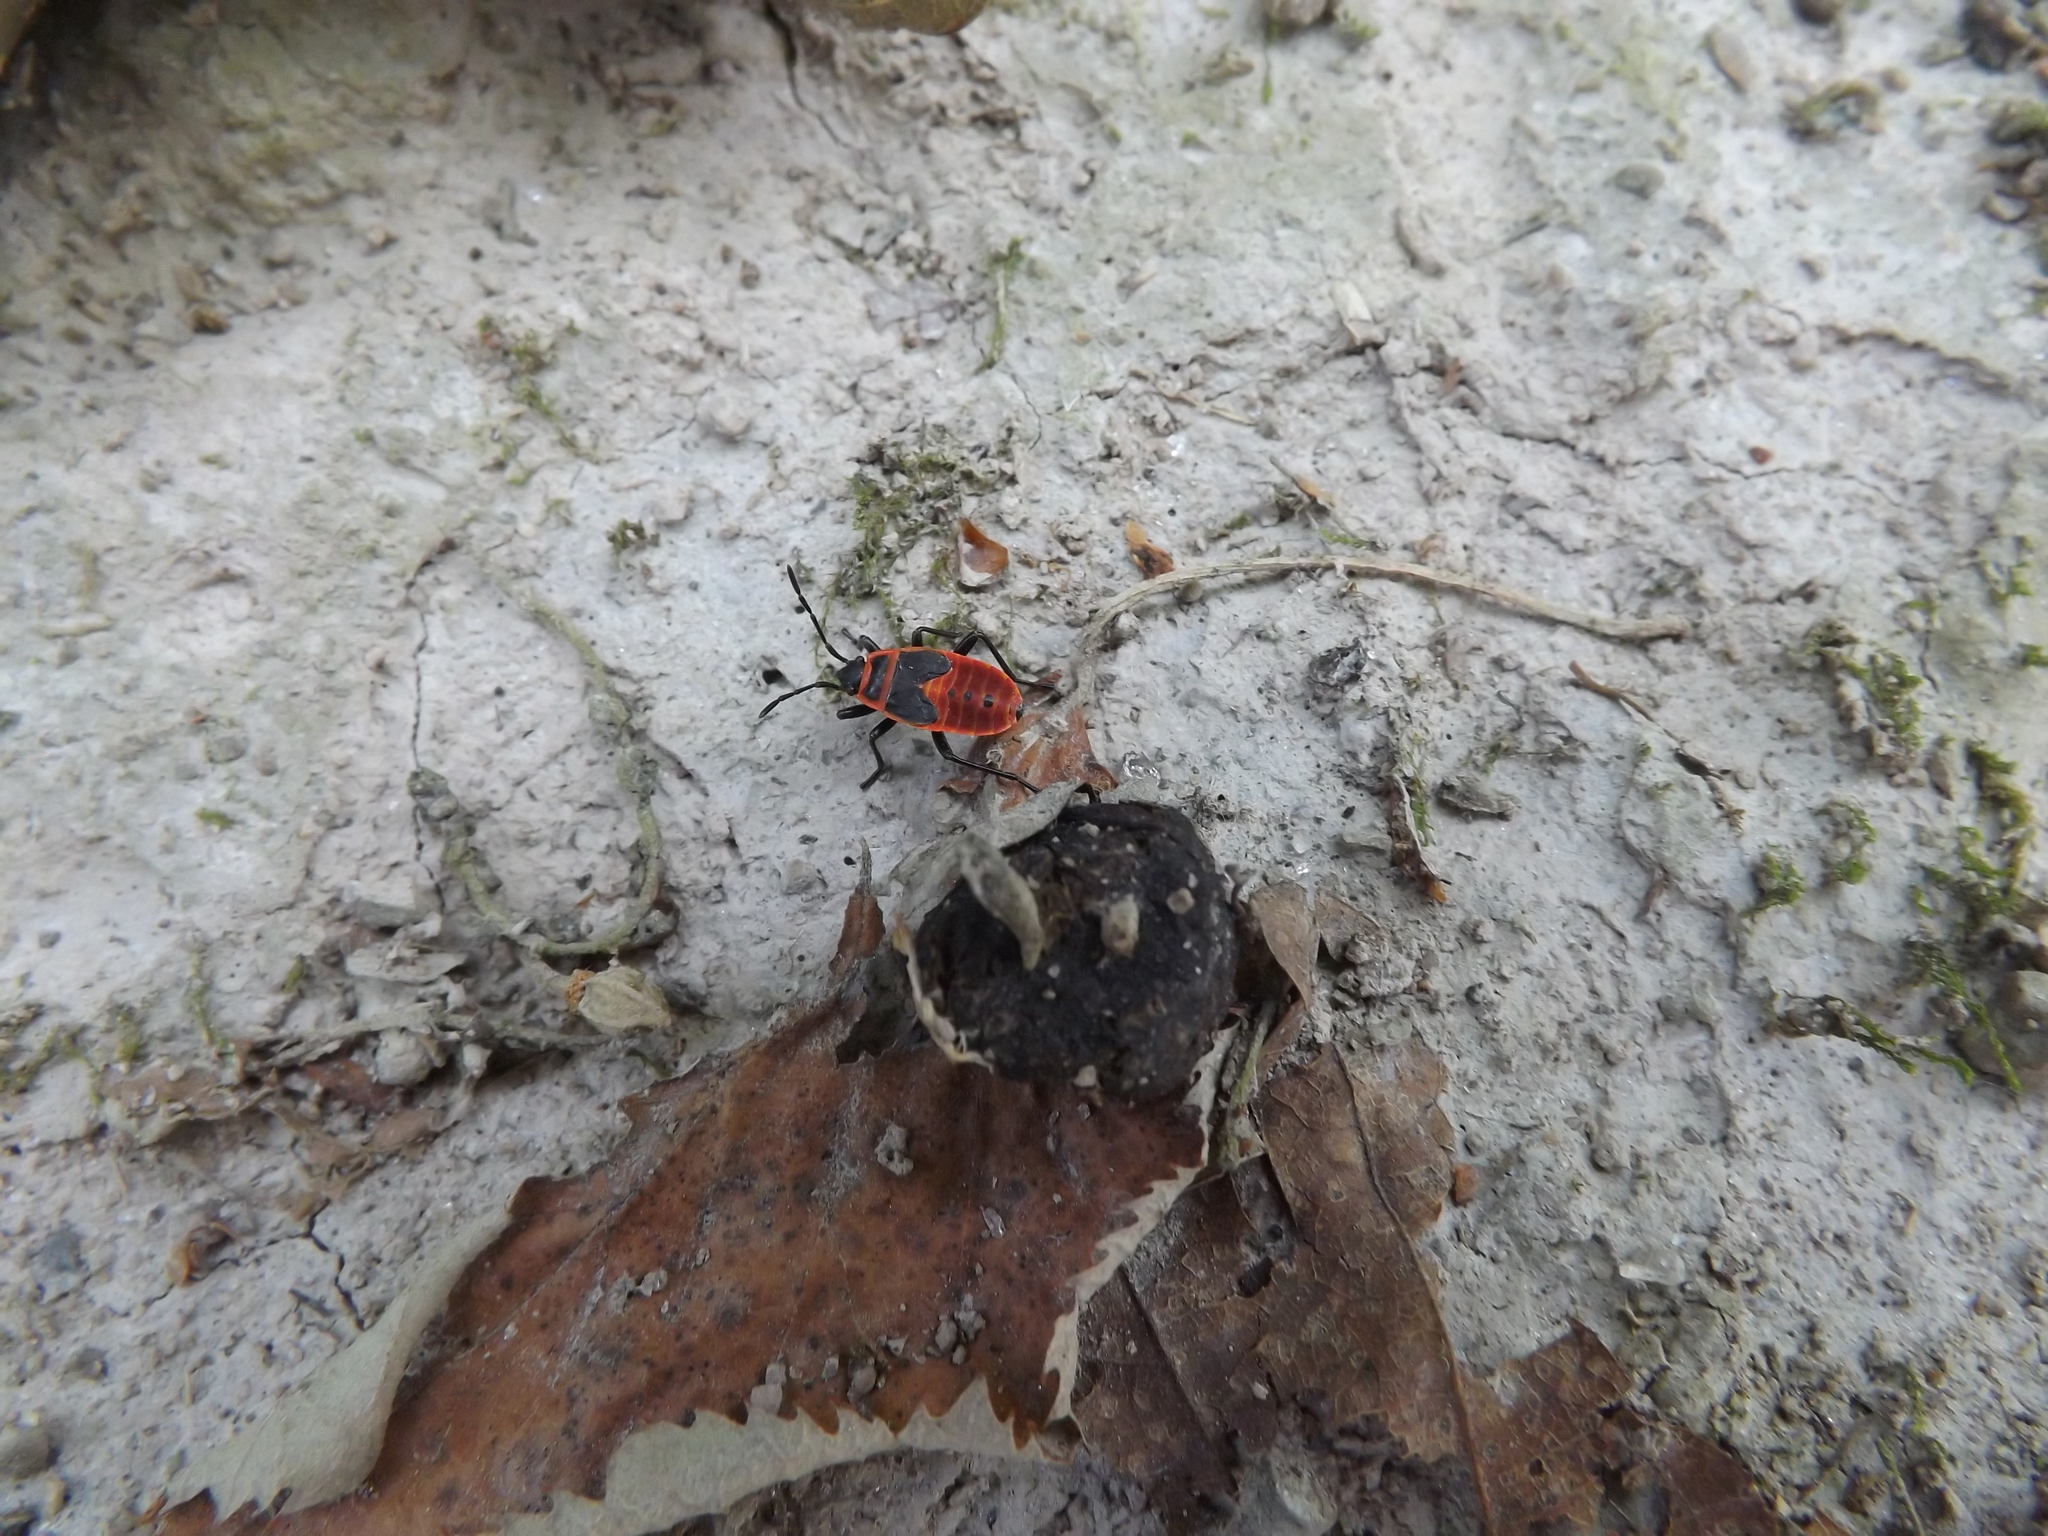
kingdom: Animalia
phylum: Arthropoda
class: Insecta
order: Hemiptera
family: Pyrrhocoridae
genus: Pyrrhocoris
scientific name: Pyrrhocoris apterus
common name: Firebug
